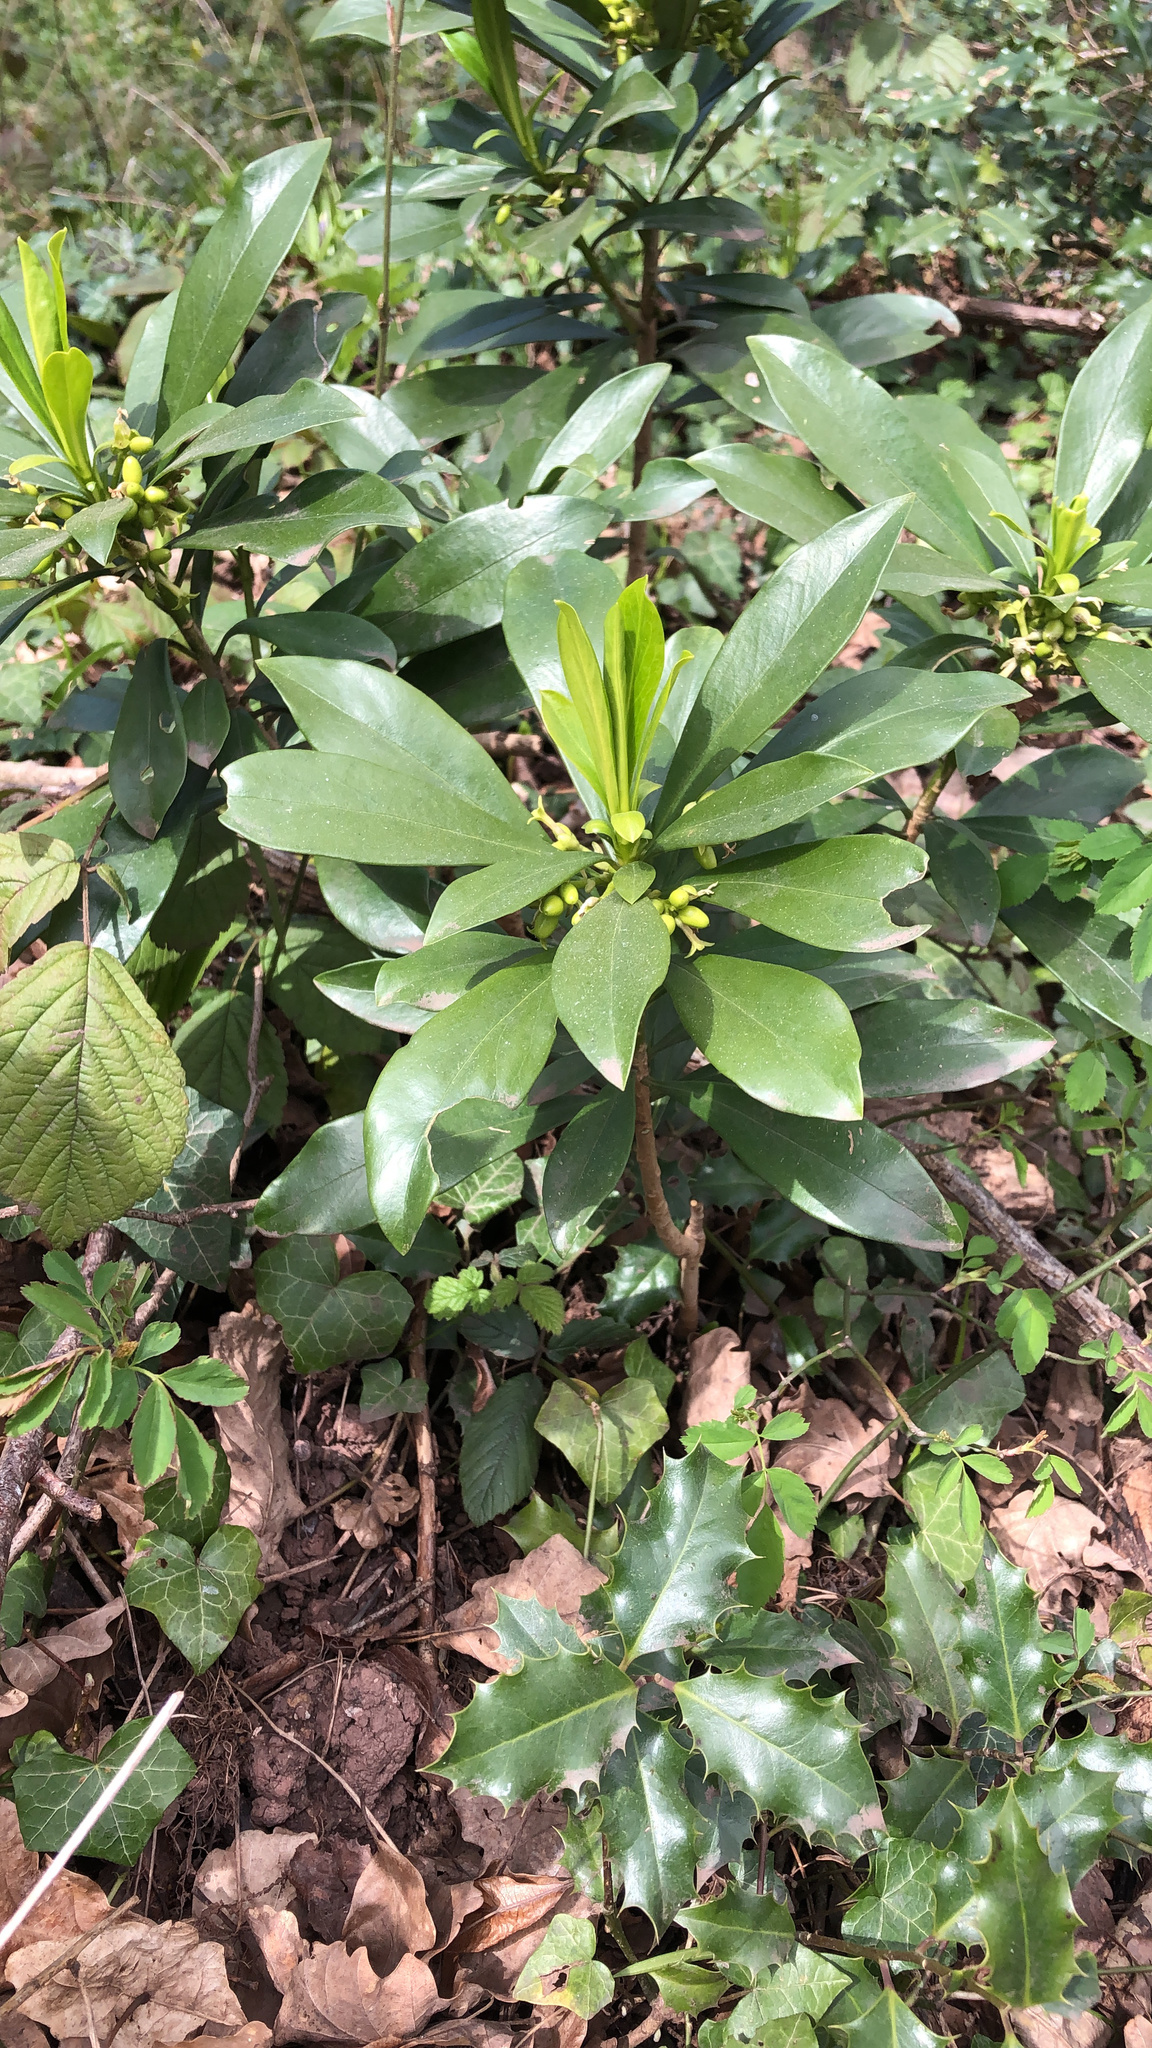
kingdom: Plantae
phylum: Tracheophyta
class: Magnoliopsida
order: Malvales
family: Thymelaeaceae
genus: Daphne
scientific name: Daphne laureola
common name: Spurge-laurel
